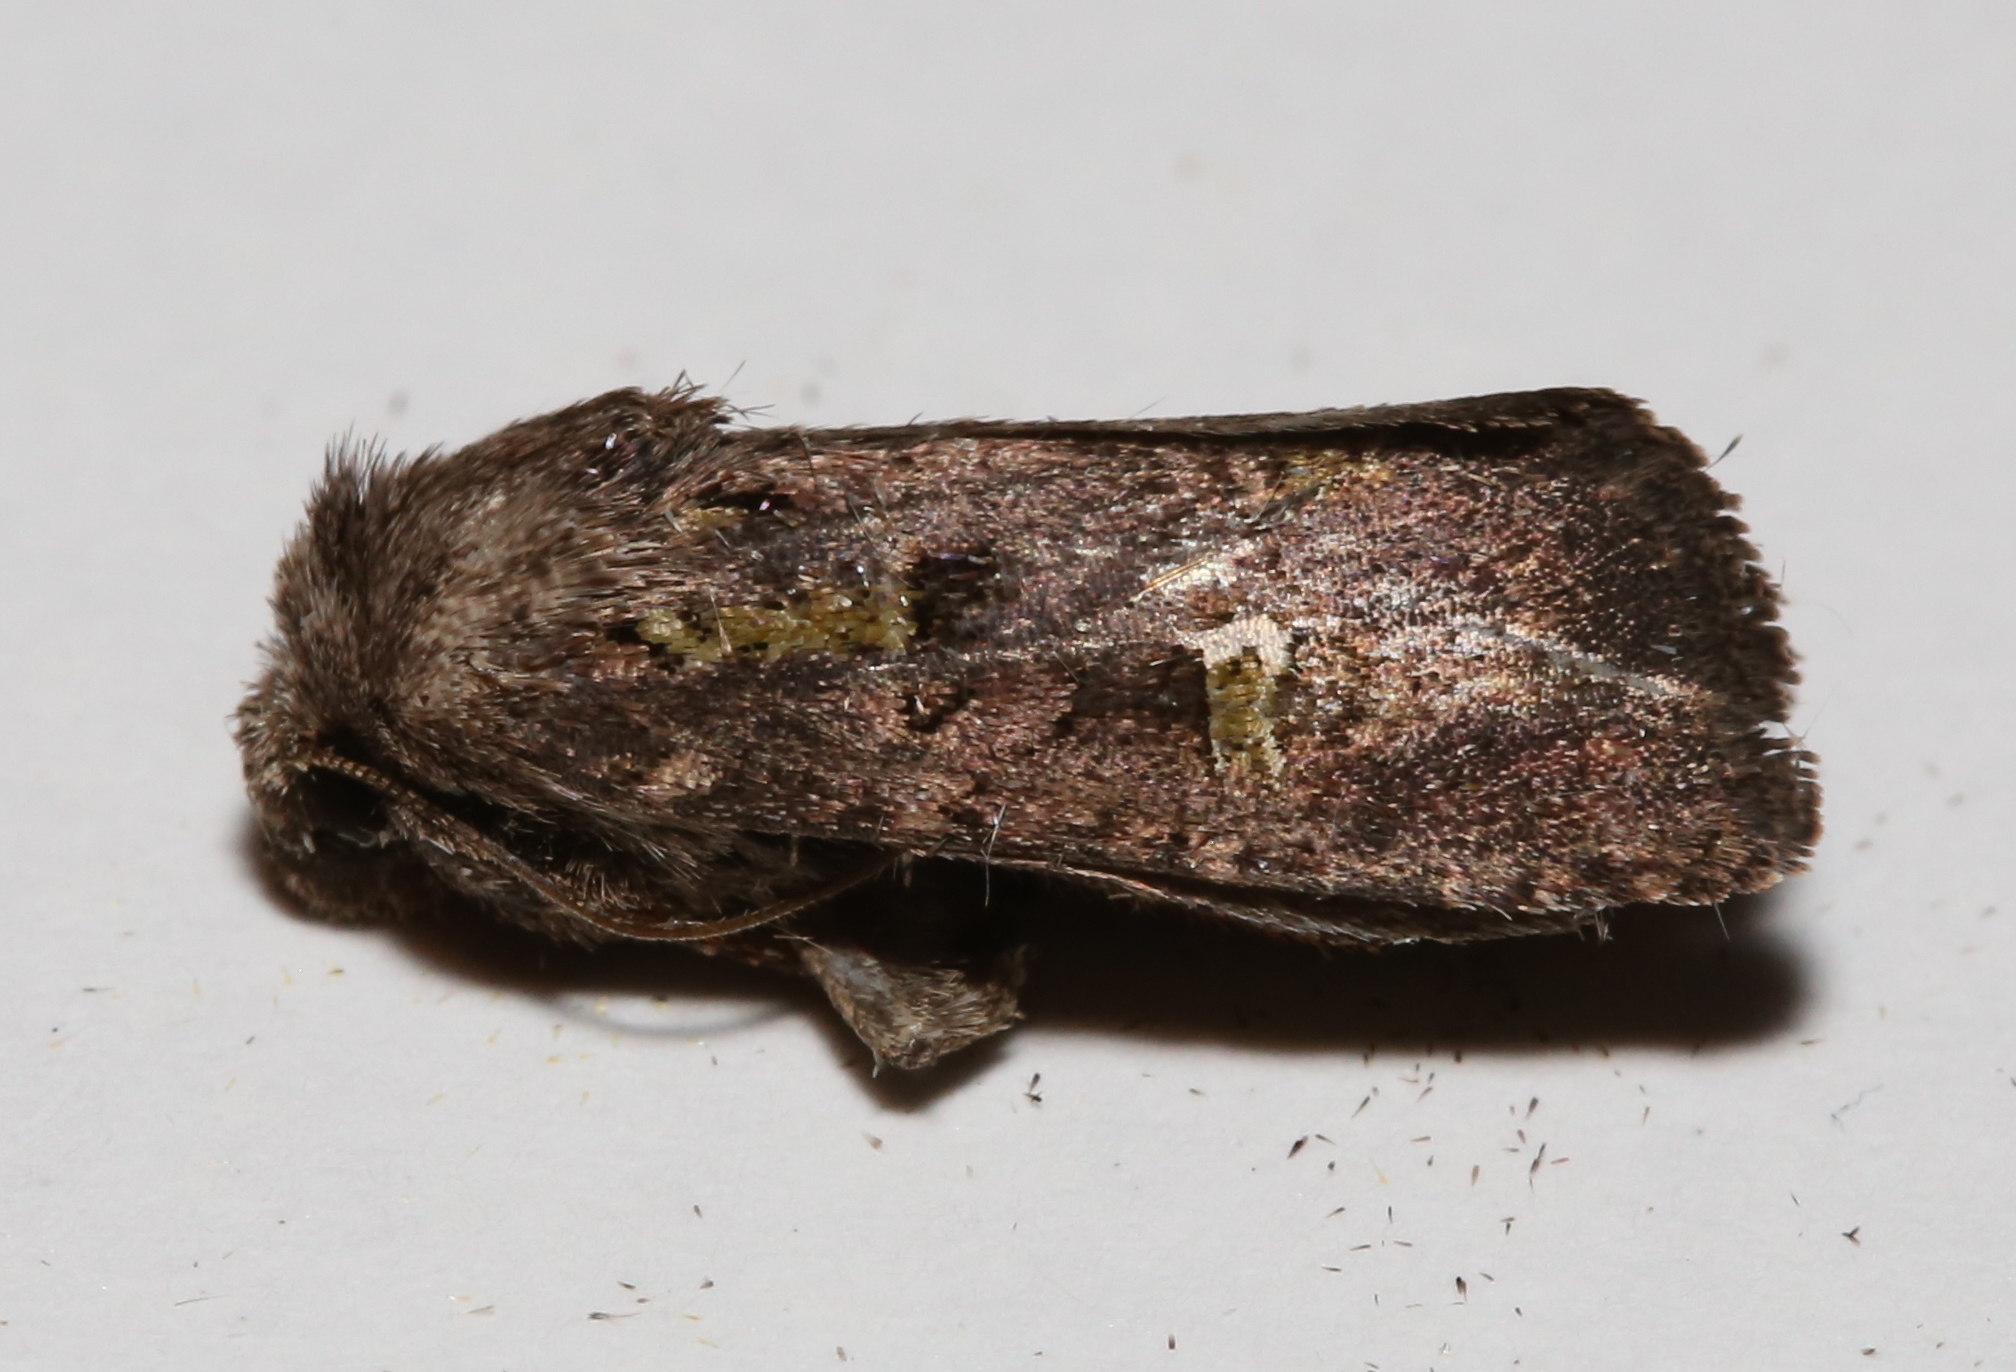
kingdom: Animalia
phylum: Arthropoda
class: Insecta
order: Lepidoptera
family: Noctuidae
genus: Lacinipolia
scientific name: Lacinipolia renigera
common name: Kidney-spotted minor
